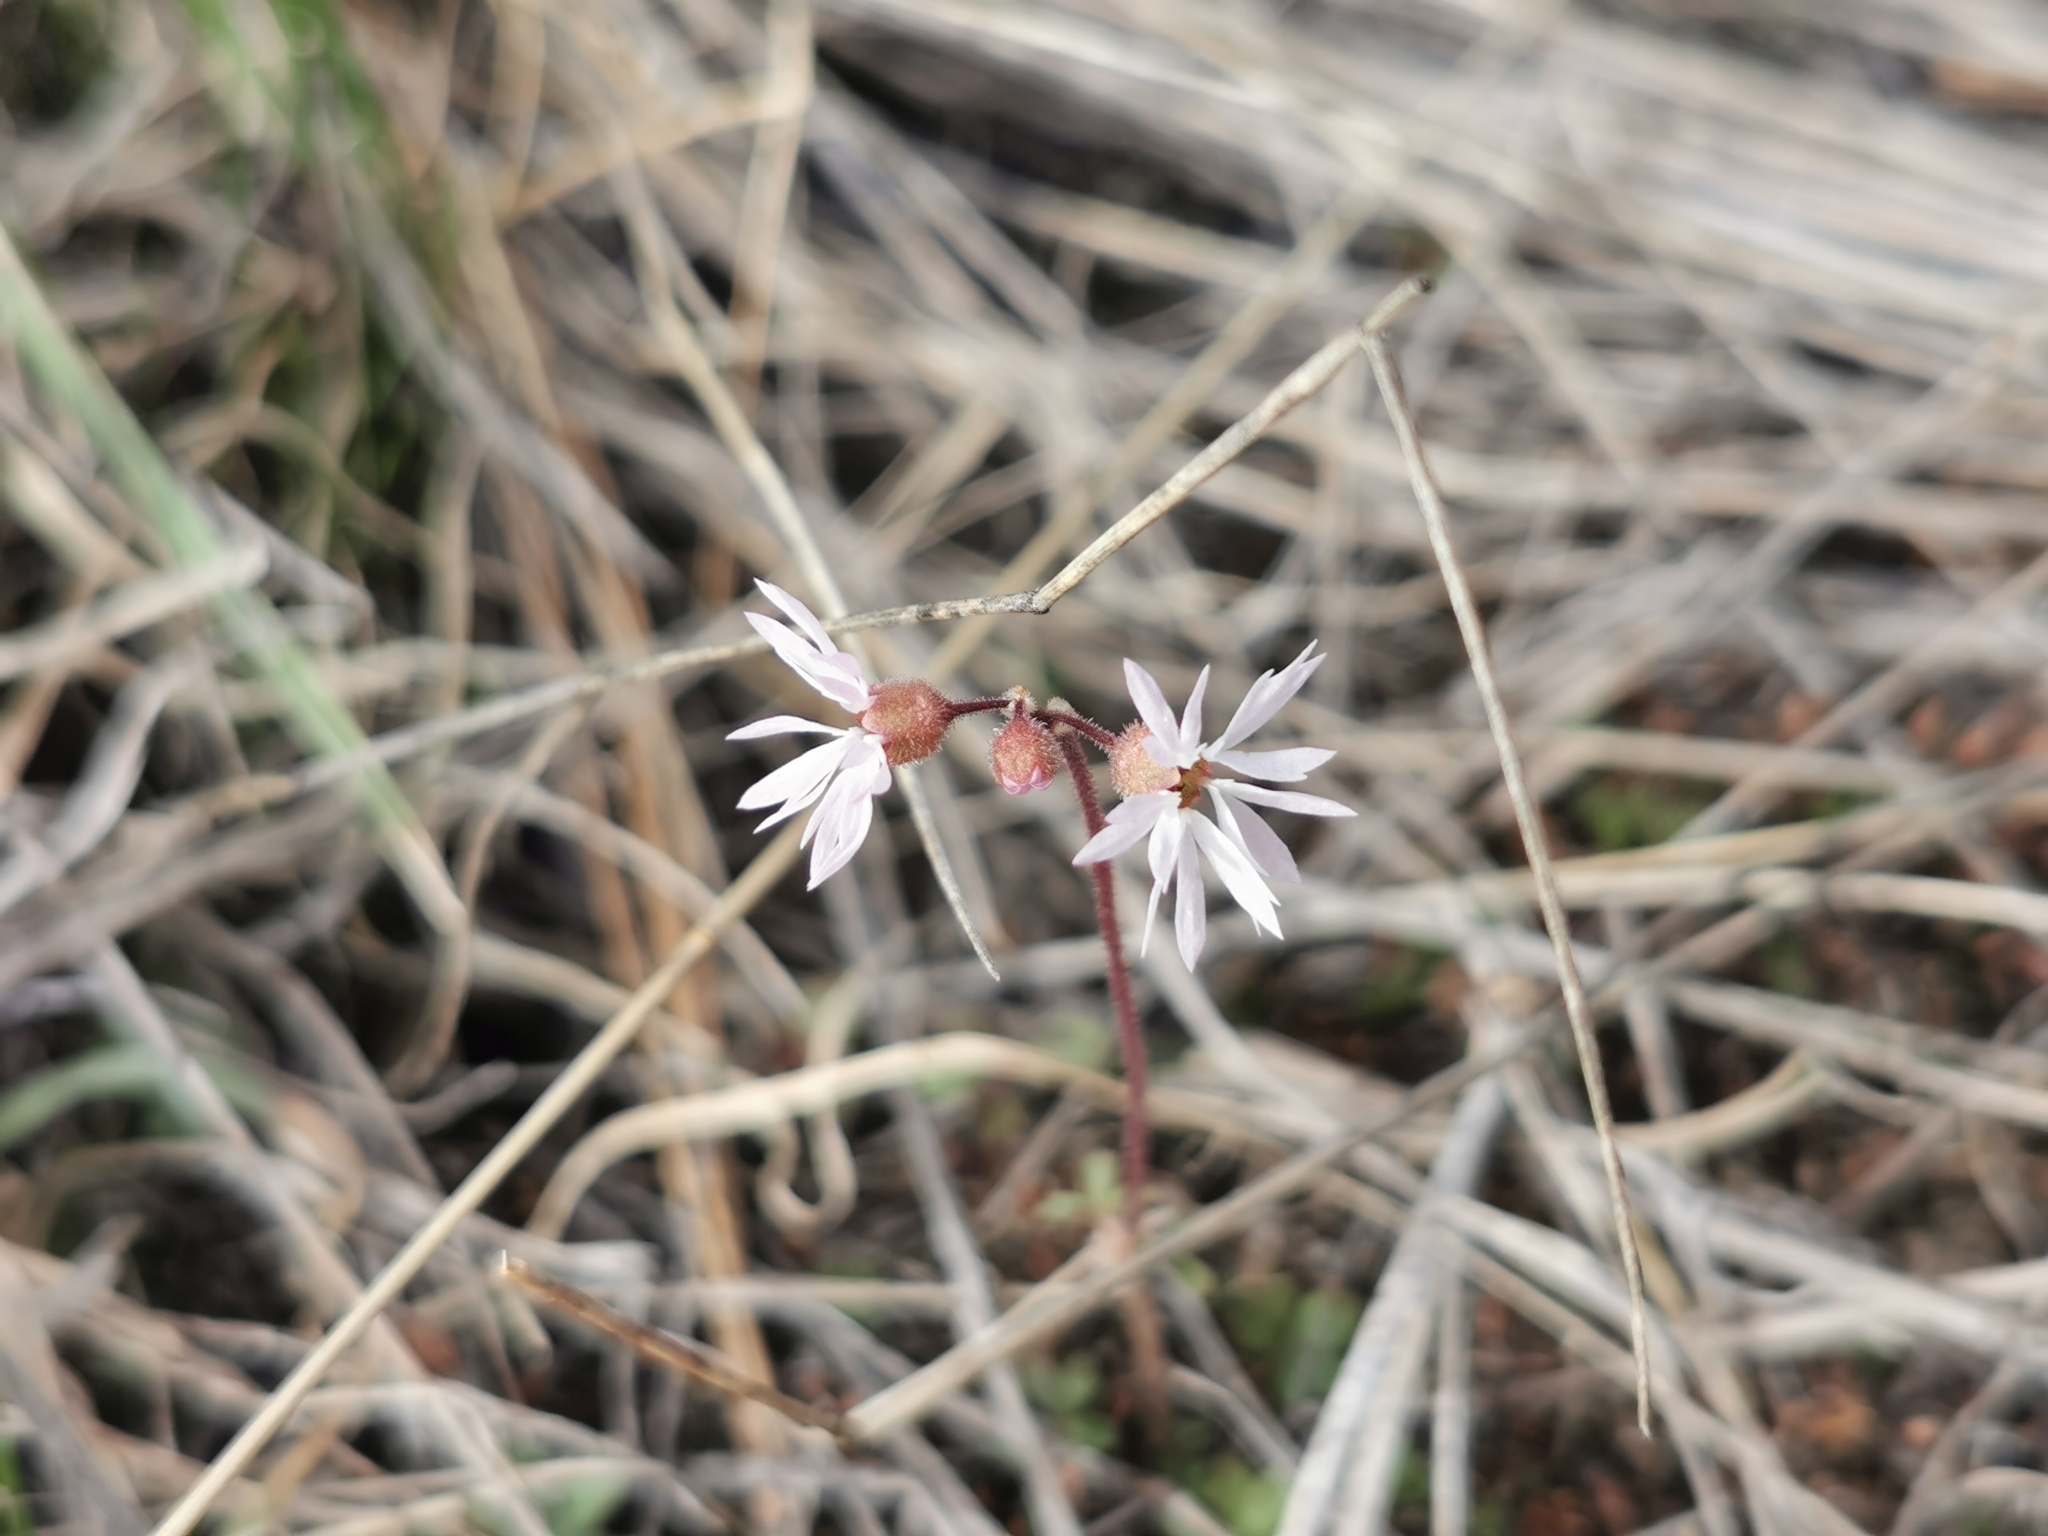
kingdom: Plantae
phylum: Tracheophyta
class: Magnoliopsida
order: Saxifragales
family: Saxifragaceae
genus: Lithophragma
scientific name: Lithophragma glabrum
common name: Bulbous prairie-star
